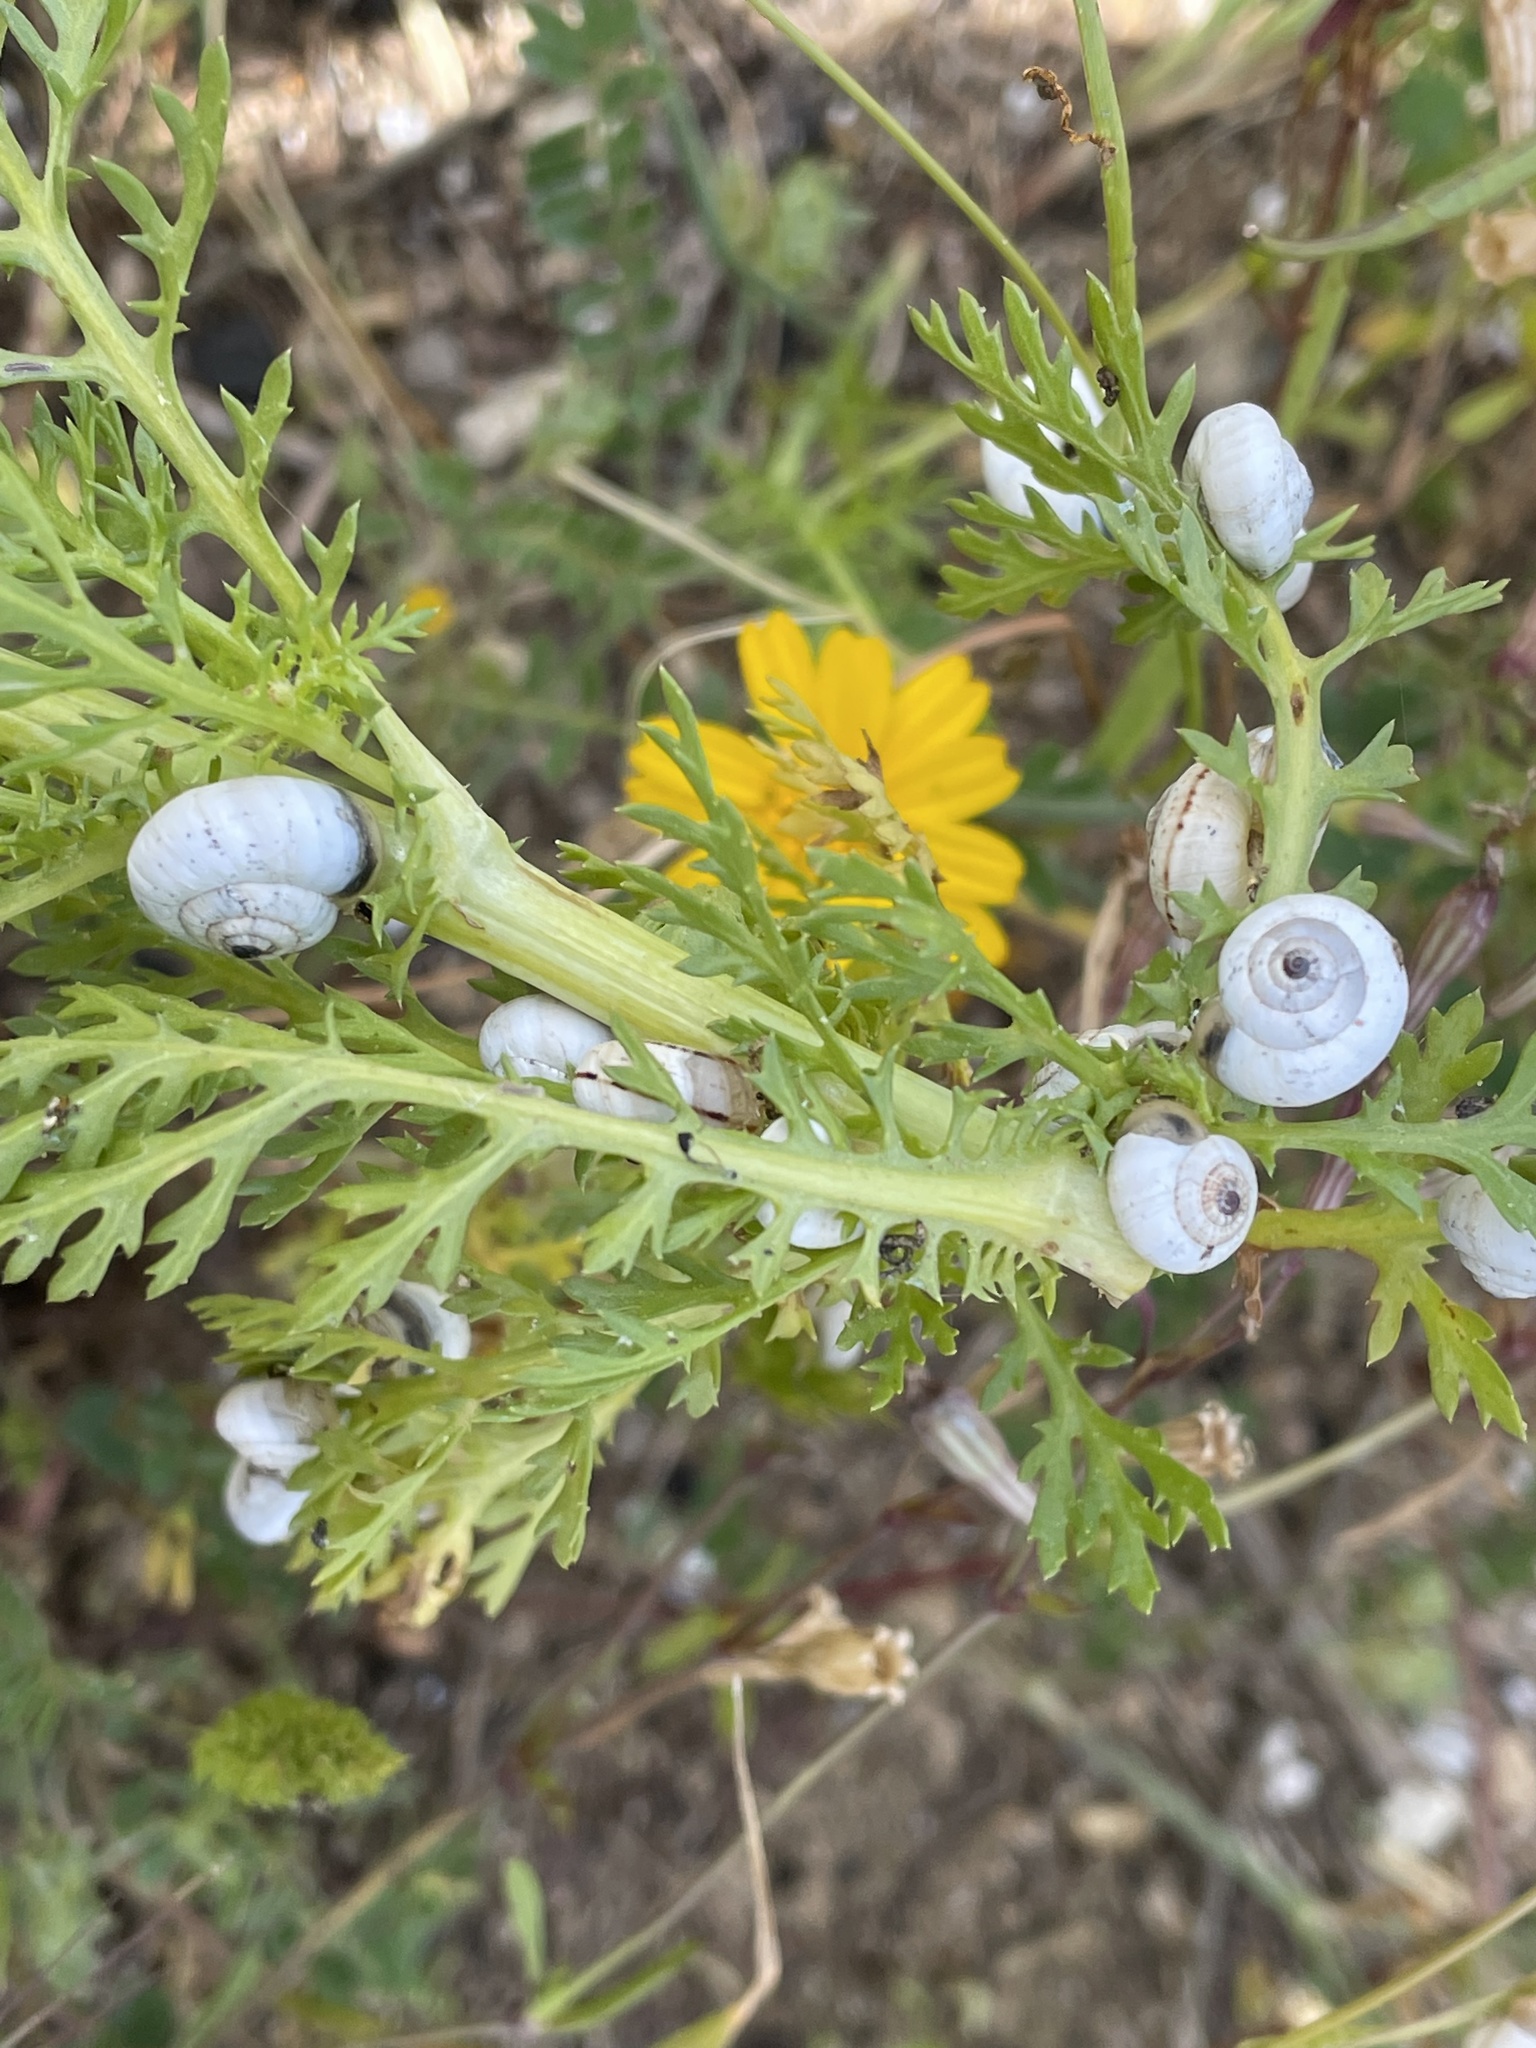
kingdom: Animalia
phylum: Mollusca
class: Gastropoda
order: Stylommatophora
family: Helicidae
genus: Theba
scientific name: Theba pisana
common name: White snail
